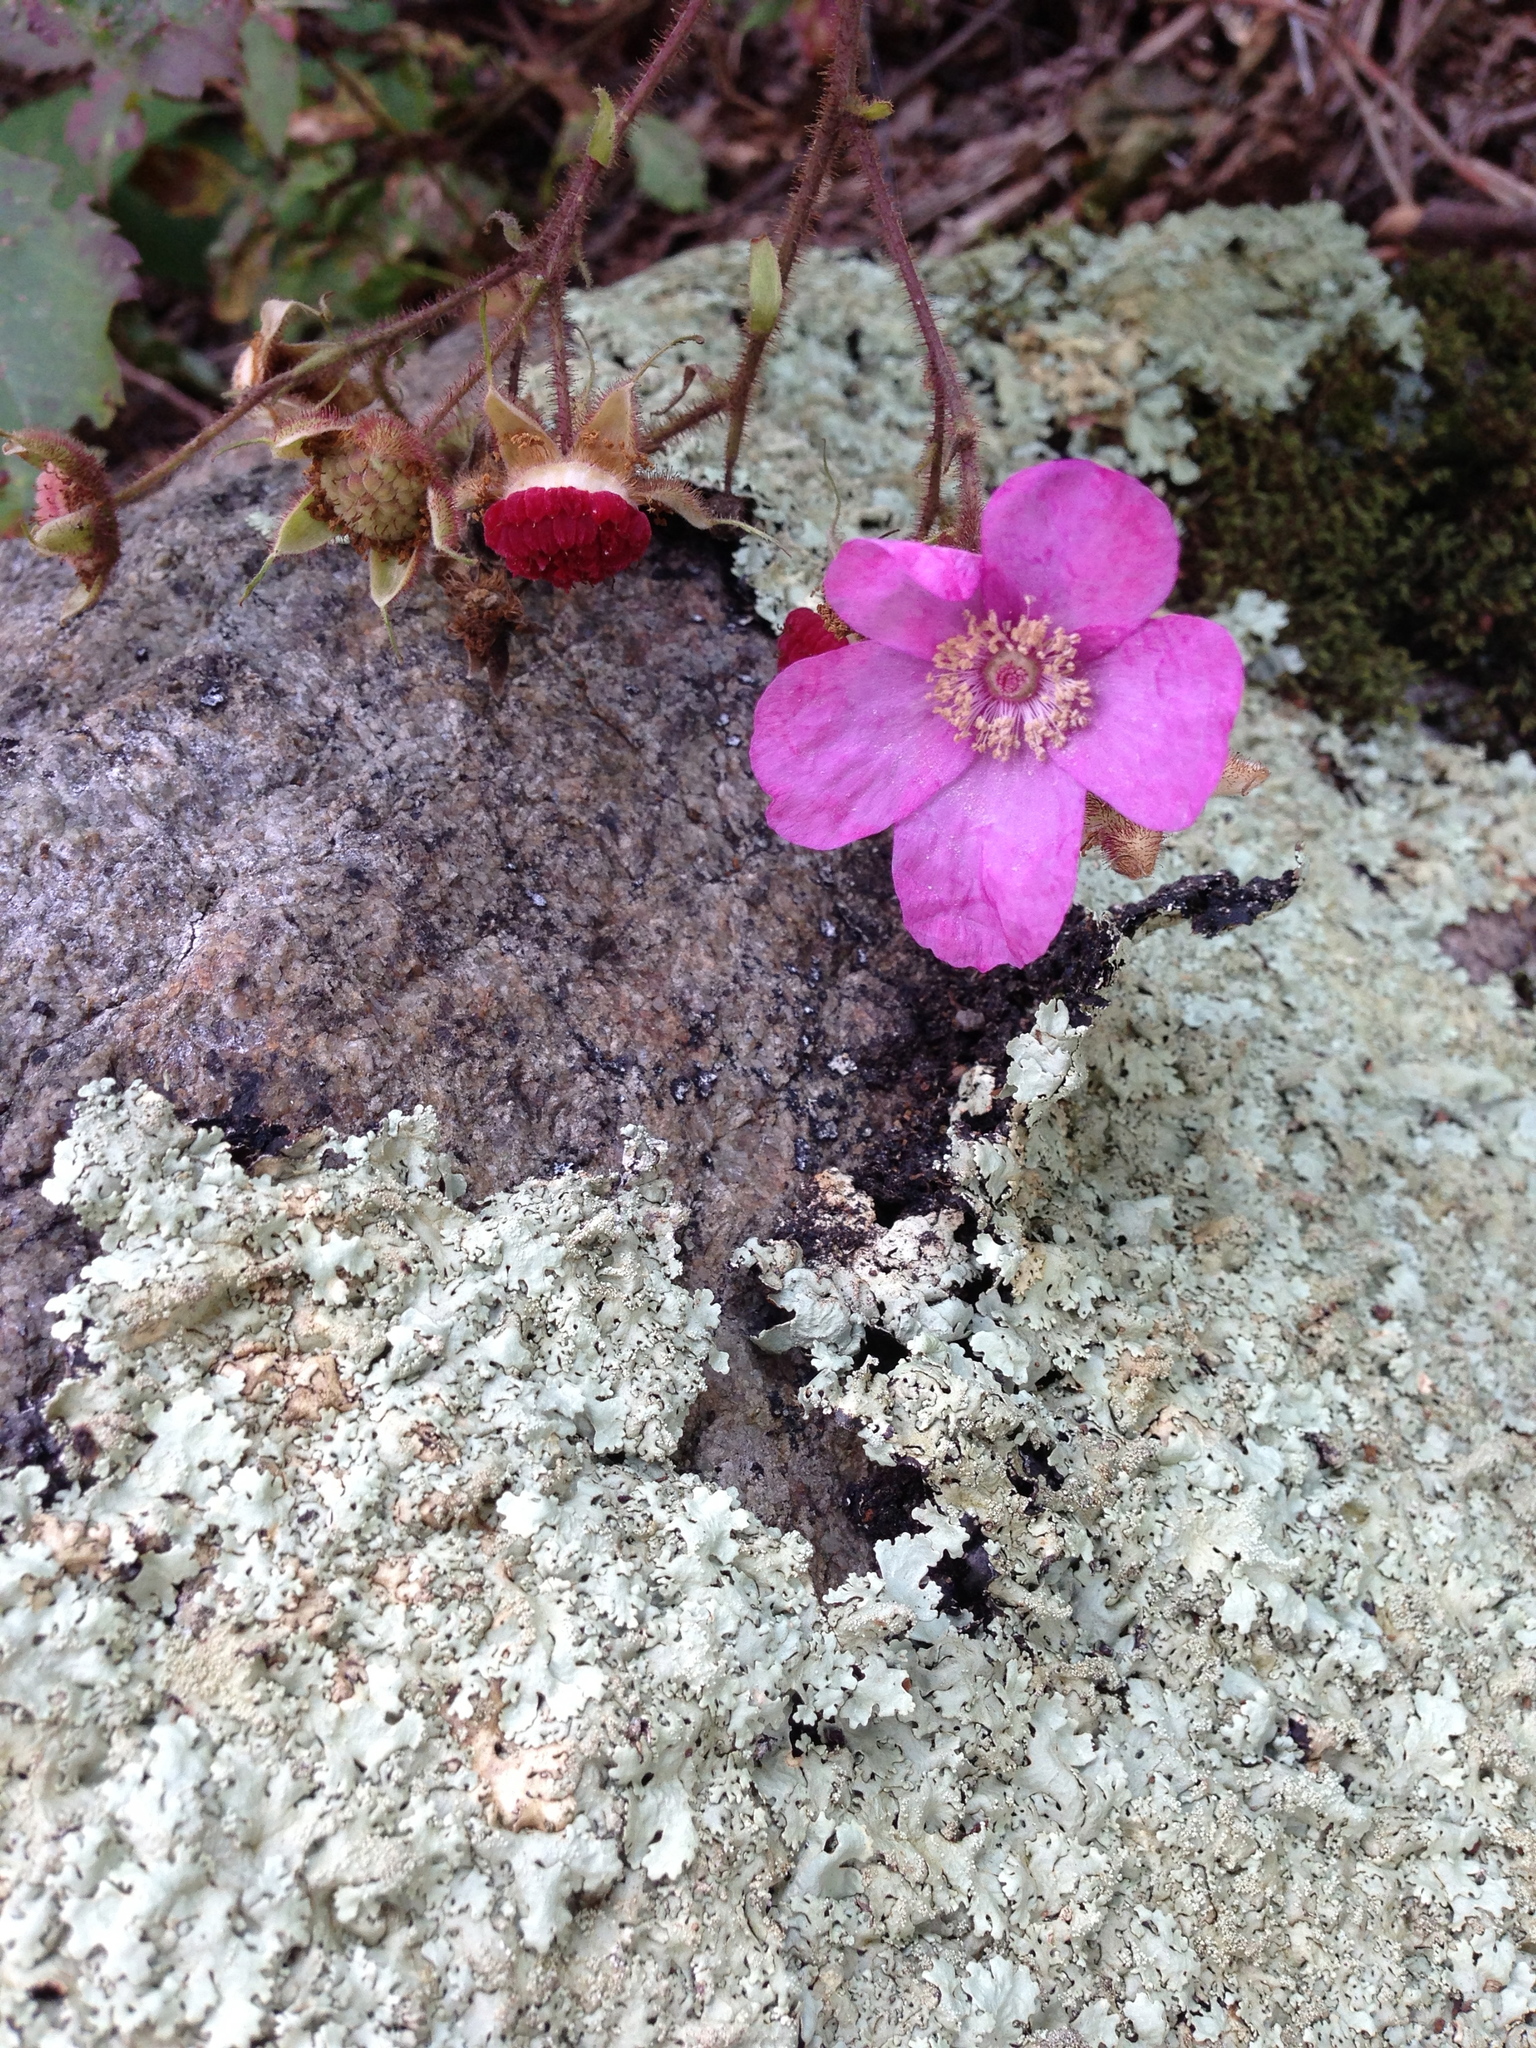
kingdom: Plantae
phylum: Tracheophyta
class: Magnoliopsida
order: Rosales
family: Rosaceae
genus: Rubus
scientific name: Rubus odoratus
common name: Purple-flowered raspberry
